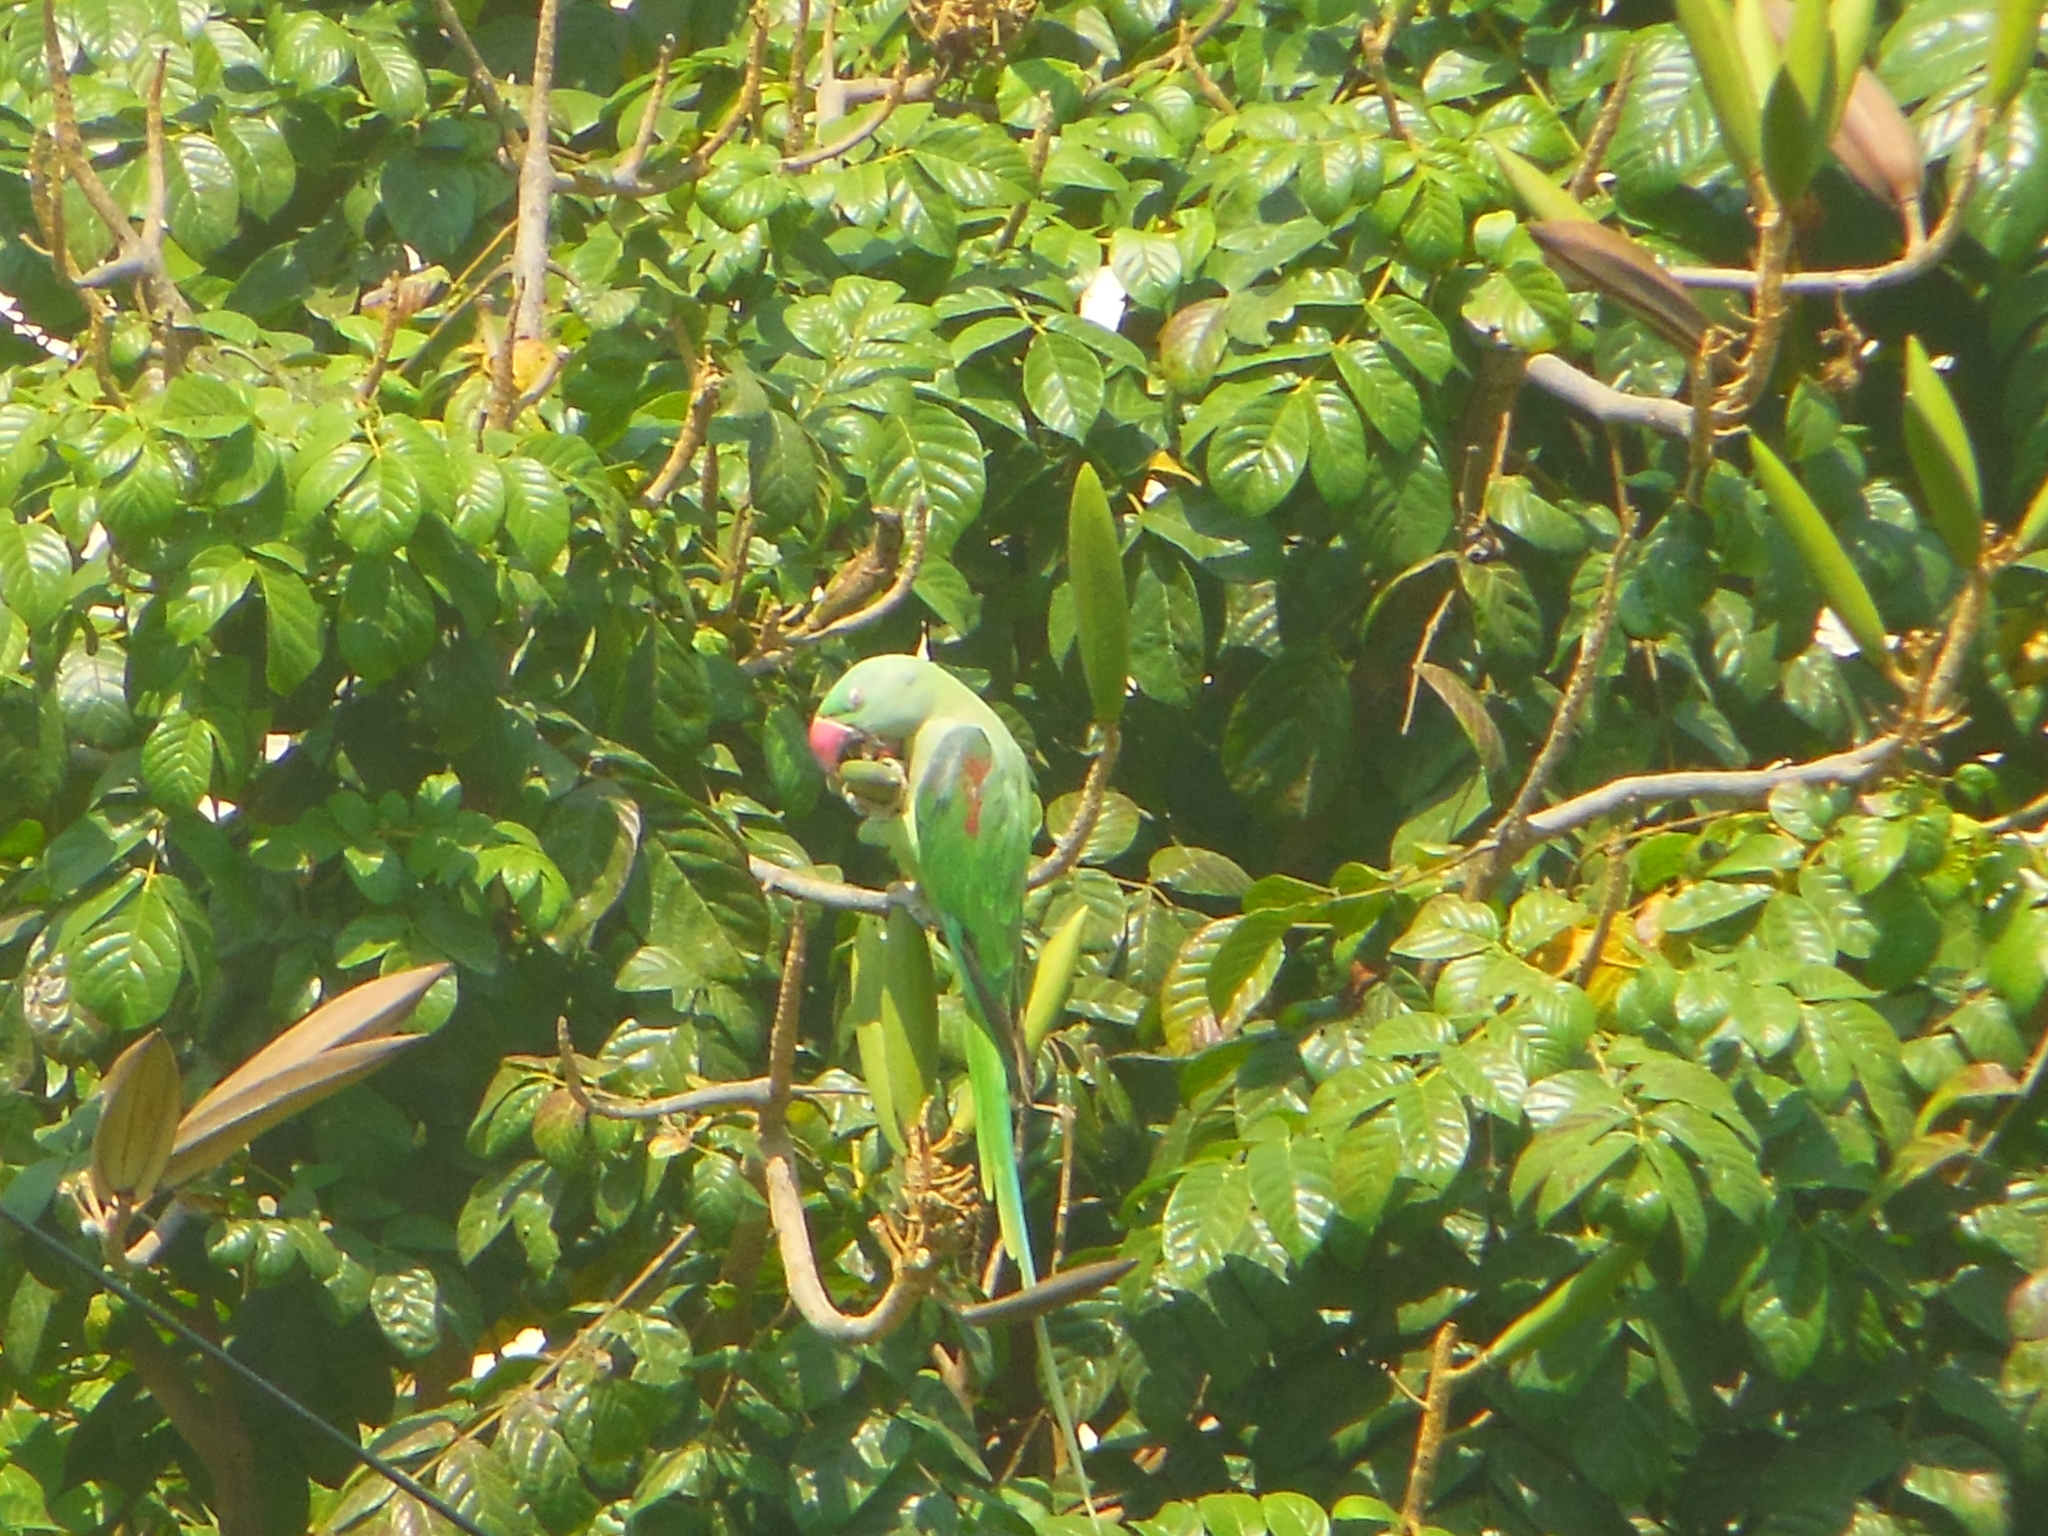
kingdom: Animalia
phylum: Chordata
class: Aves
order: Psittaciformes
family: Psittacidae
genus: Psittacula
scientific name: Psittacula eupatria
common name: Alexandrine parakeet
